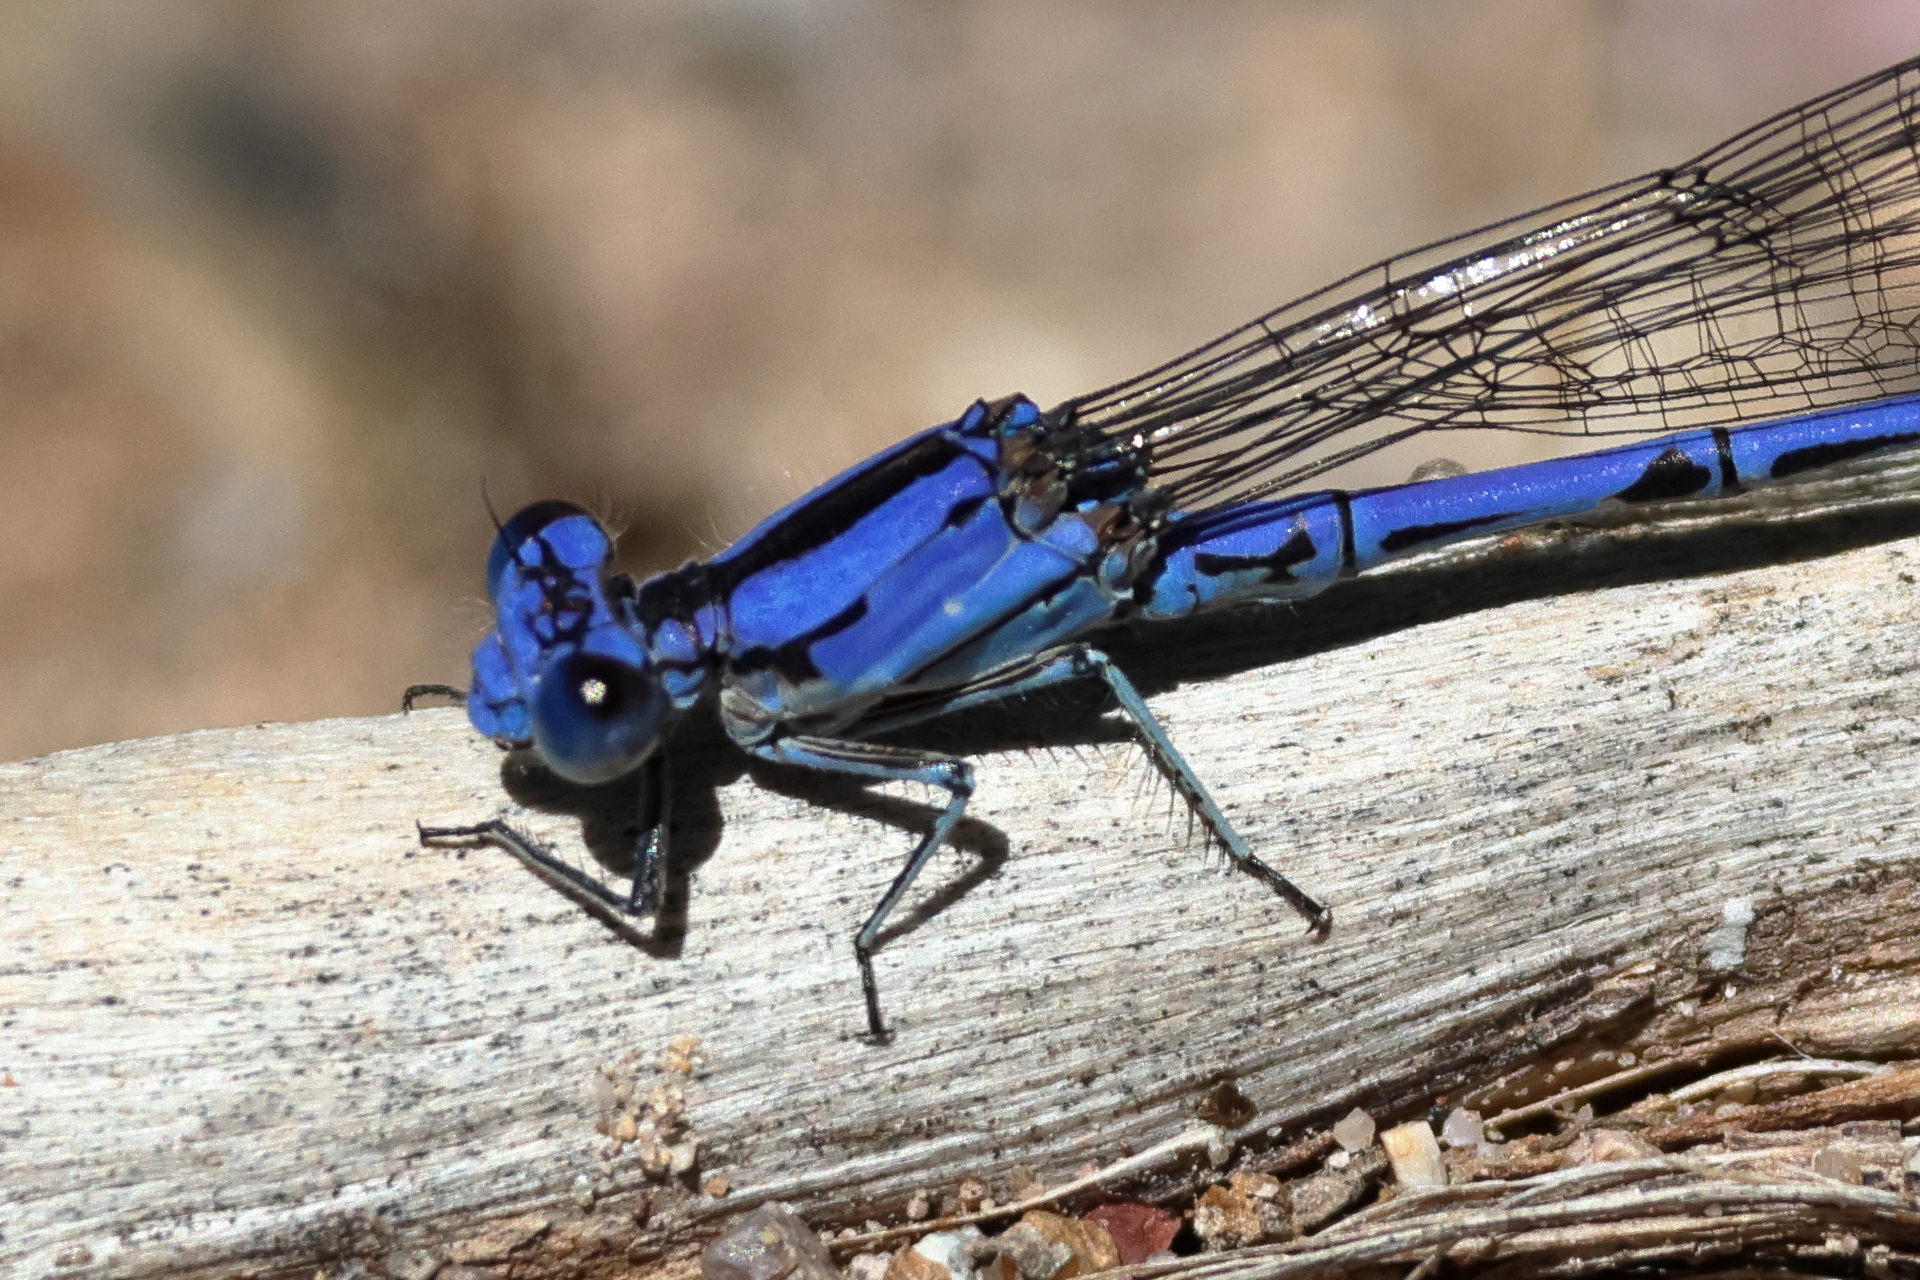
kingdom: Animalia
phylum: Arthropoda
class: Insecta
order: Odonata
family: Coenagrionidae
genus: Argia
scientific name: Argia extranea
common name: Spine-tipped dancer
